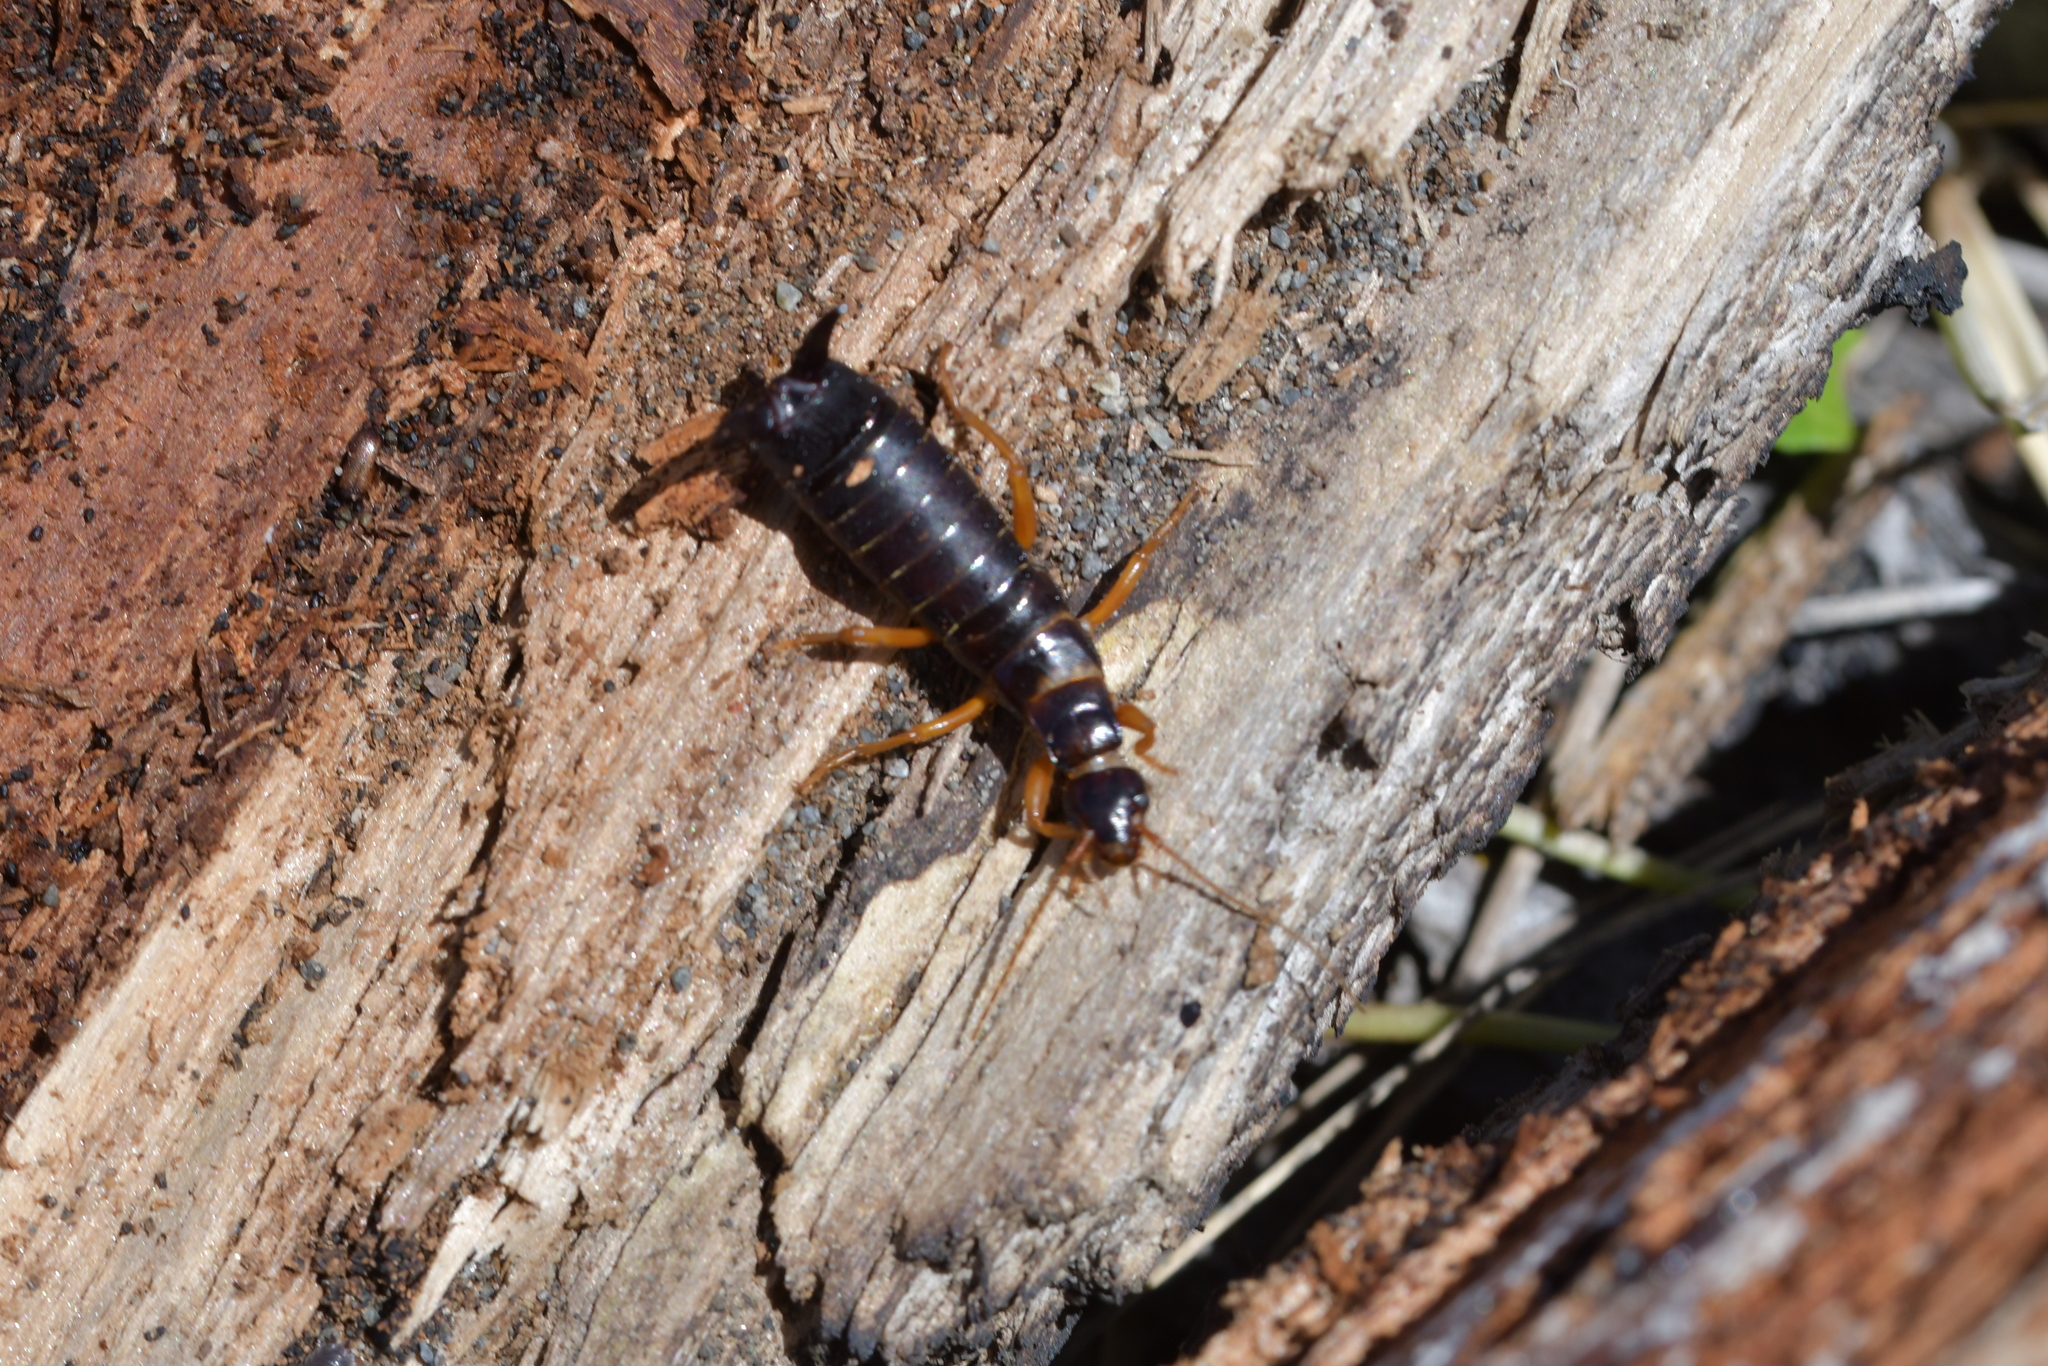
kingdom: Animalia
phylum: Arthropoda
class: Insecta
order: Dermaptera
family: Anisolabididae
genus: Anisolabis
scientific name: Anisolabis littorea
